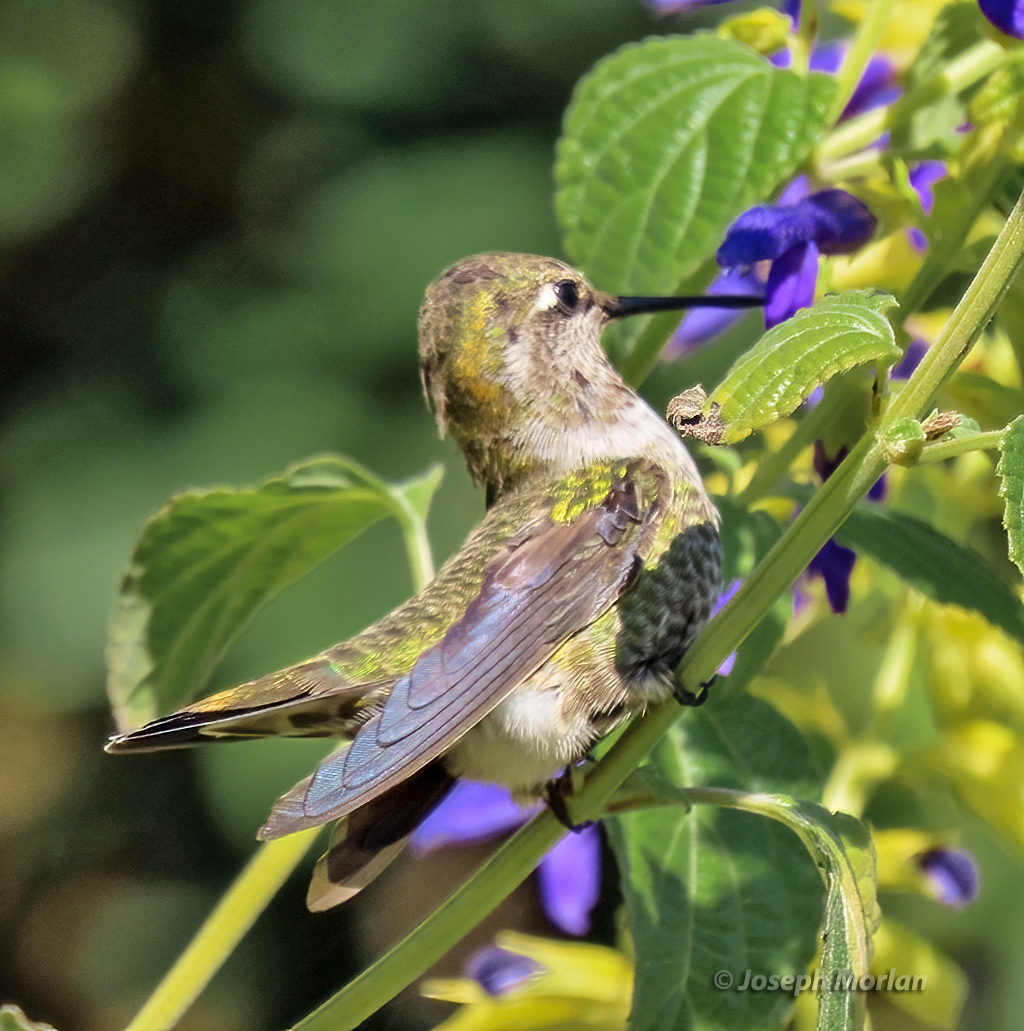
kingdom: Animalia
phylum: Chordata
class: Aves
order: Apodiformes
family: Trochilidae
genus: Calypte
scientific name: Calypte anna
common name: Anna's hummingbird
